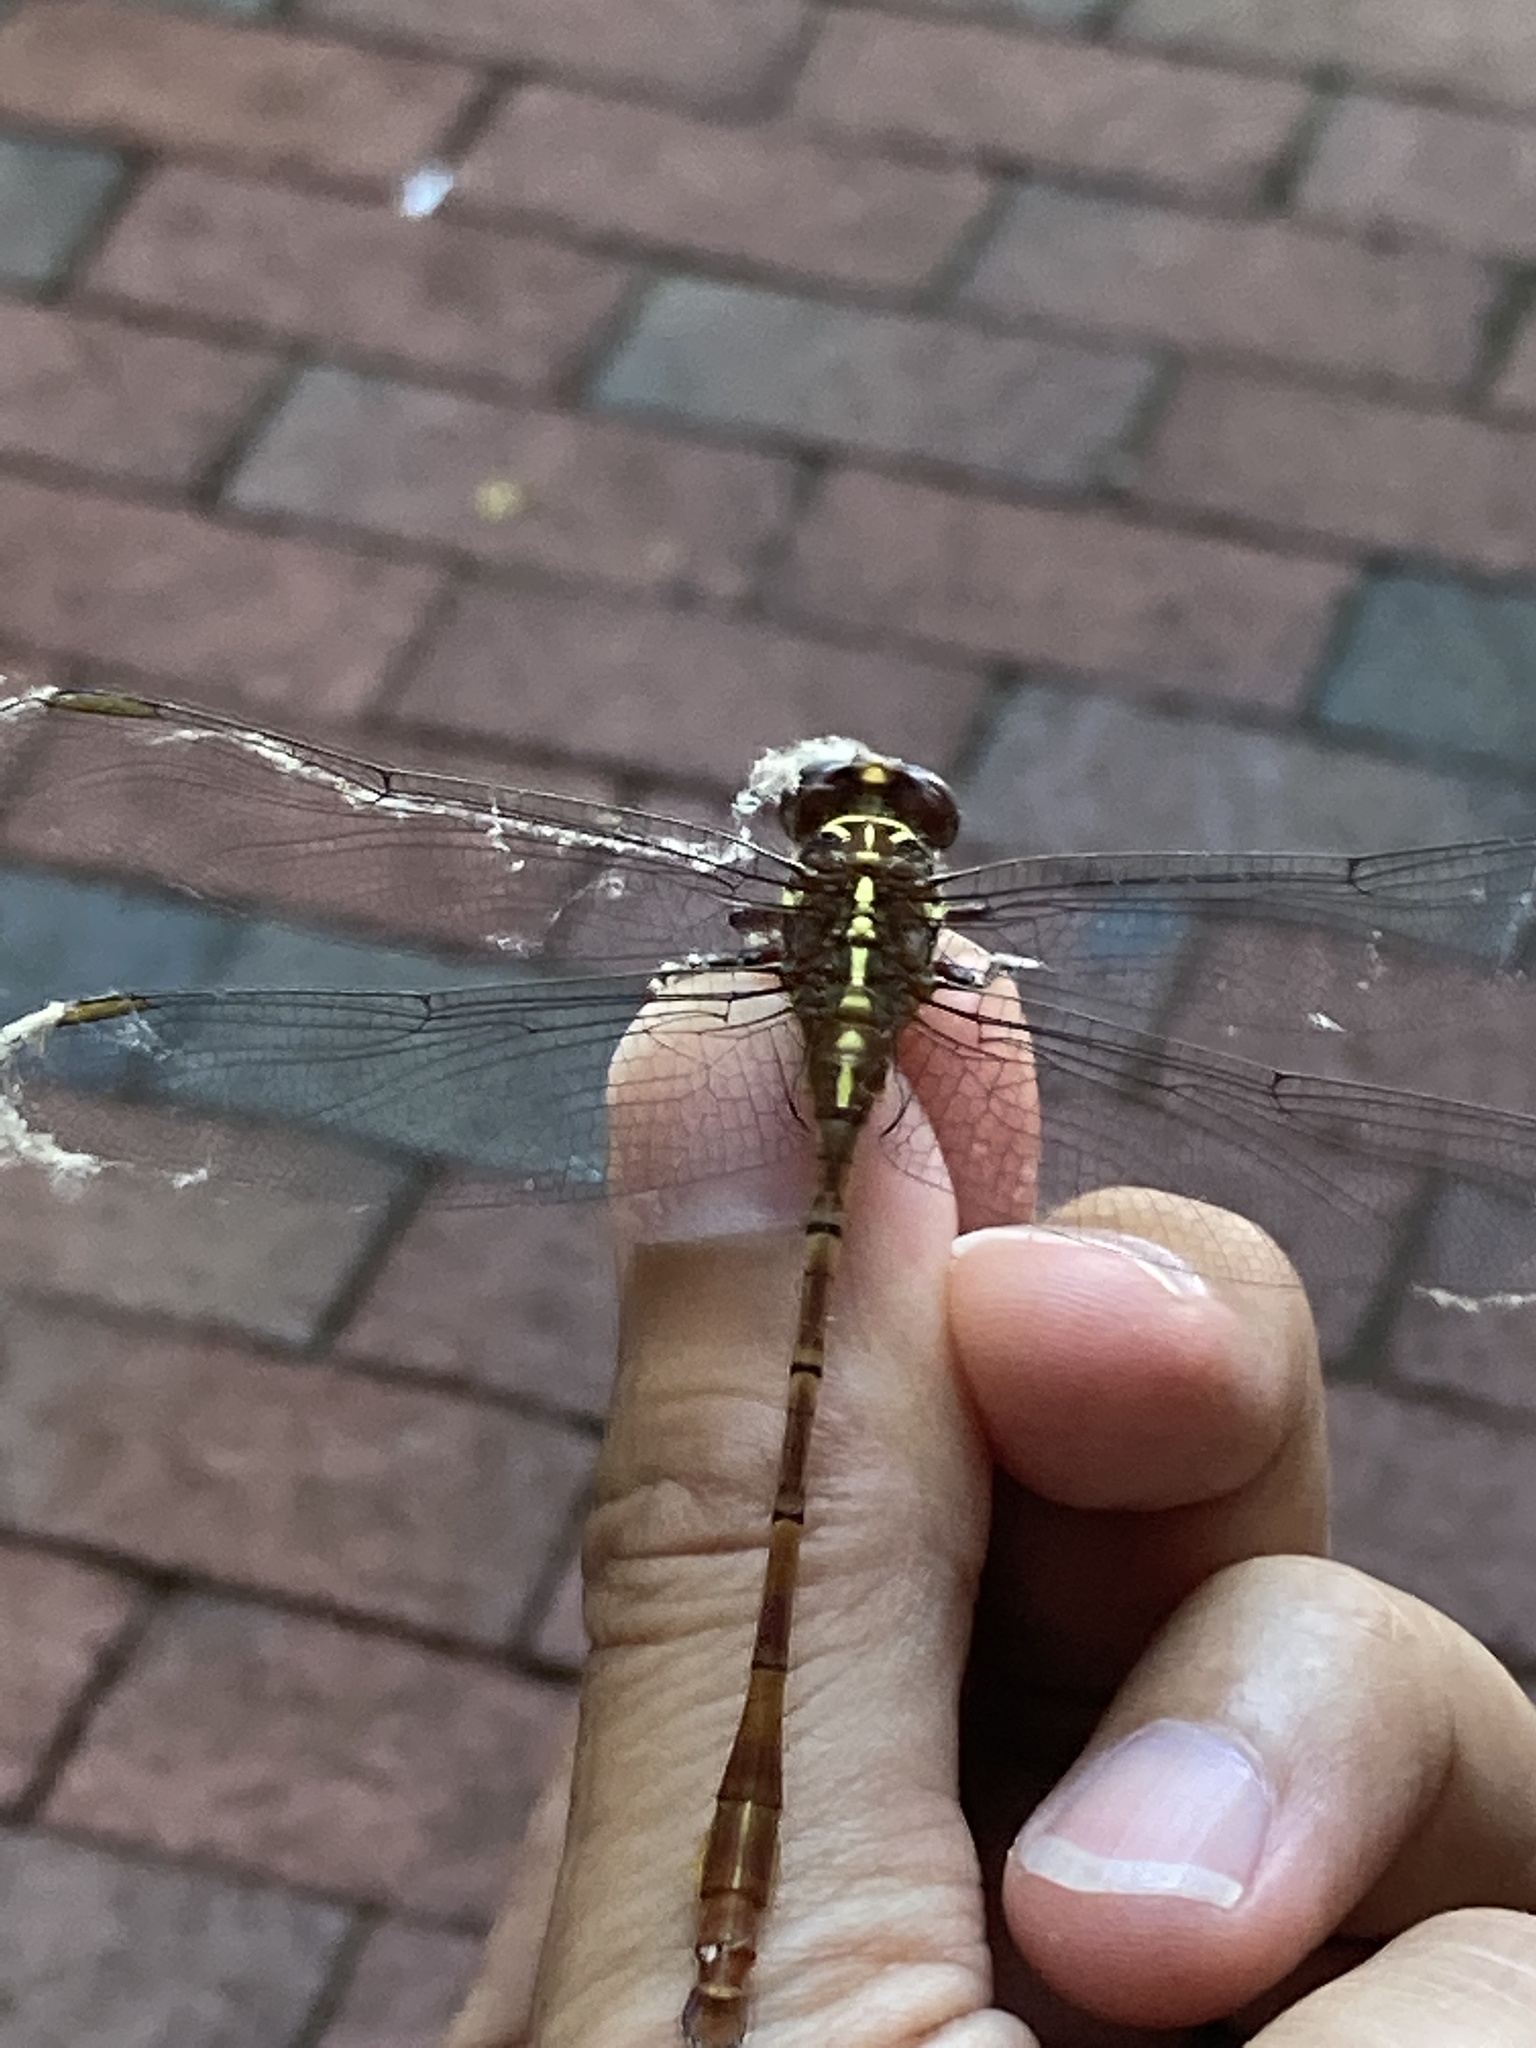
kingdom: Animalia
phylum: Arthropoda
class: Insecta
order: Odonata
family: Gomphidae
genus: Aphylla
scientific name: Aphylla williamsoni
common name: Two-striped forceptail
